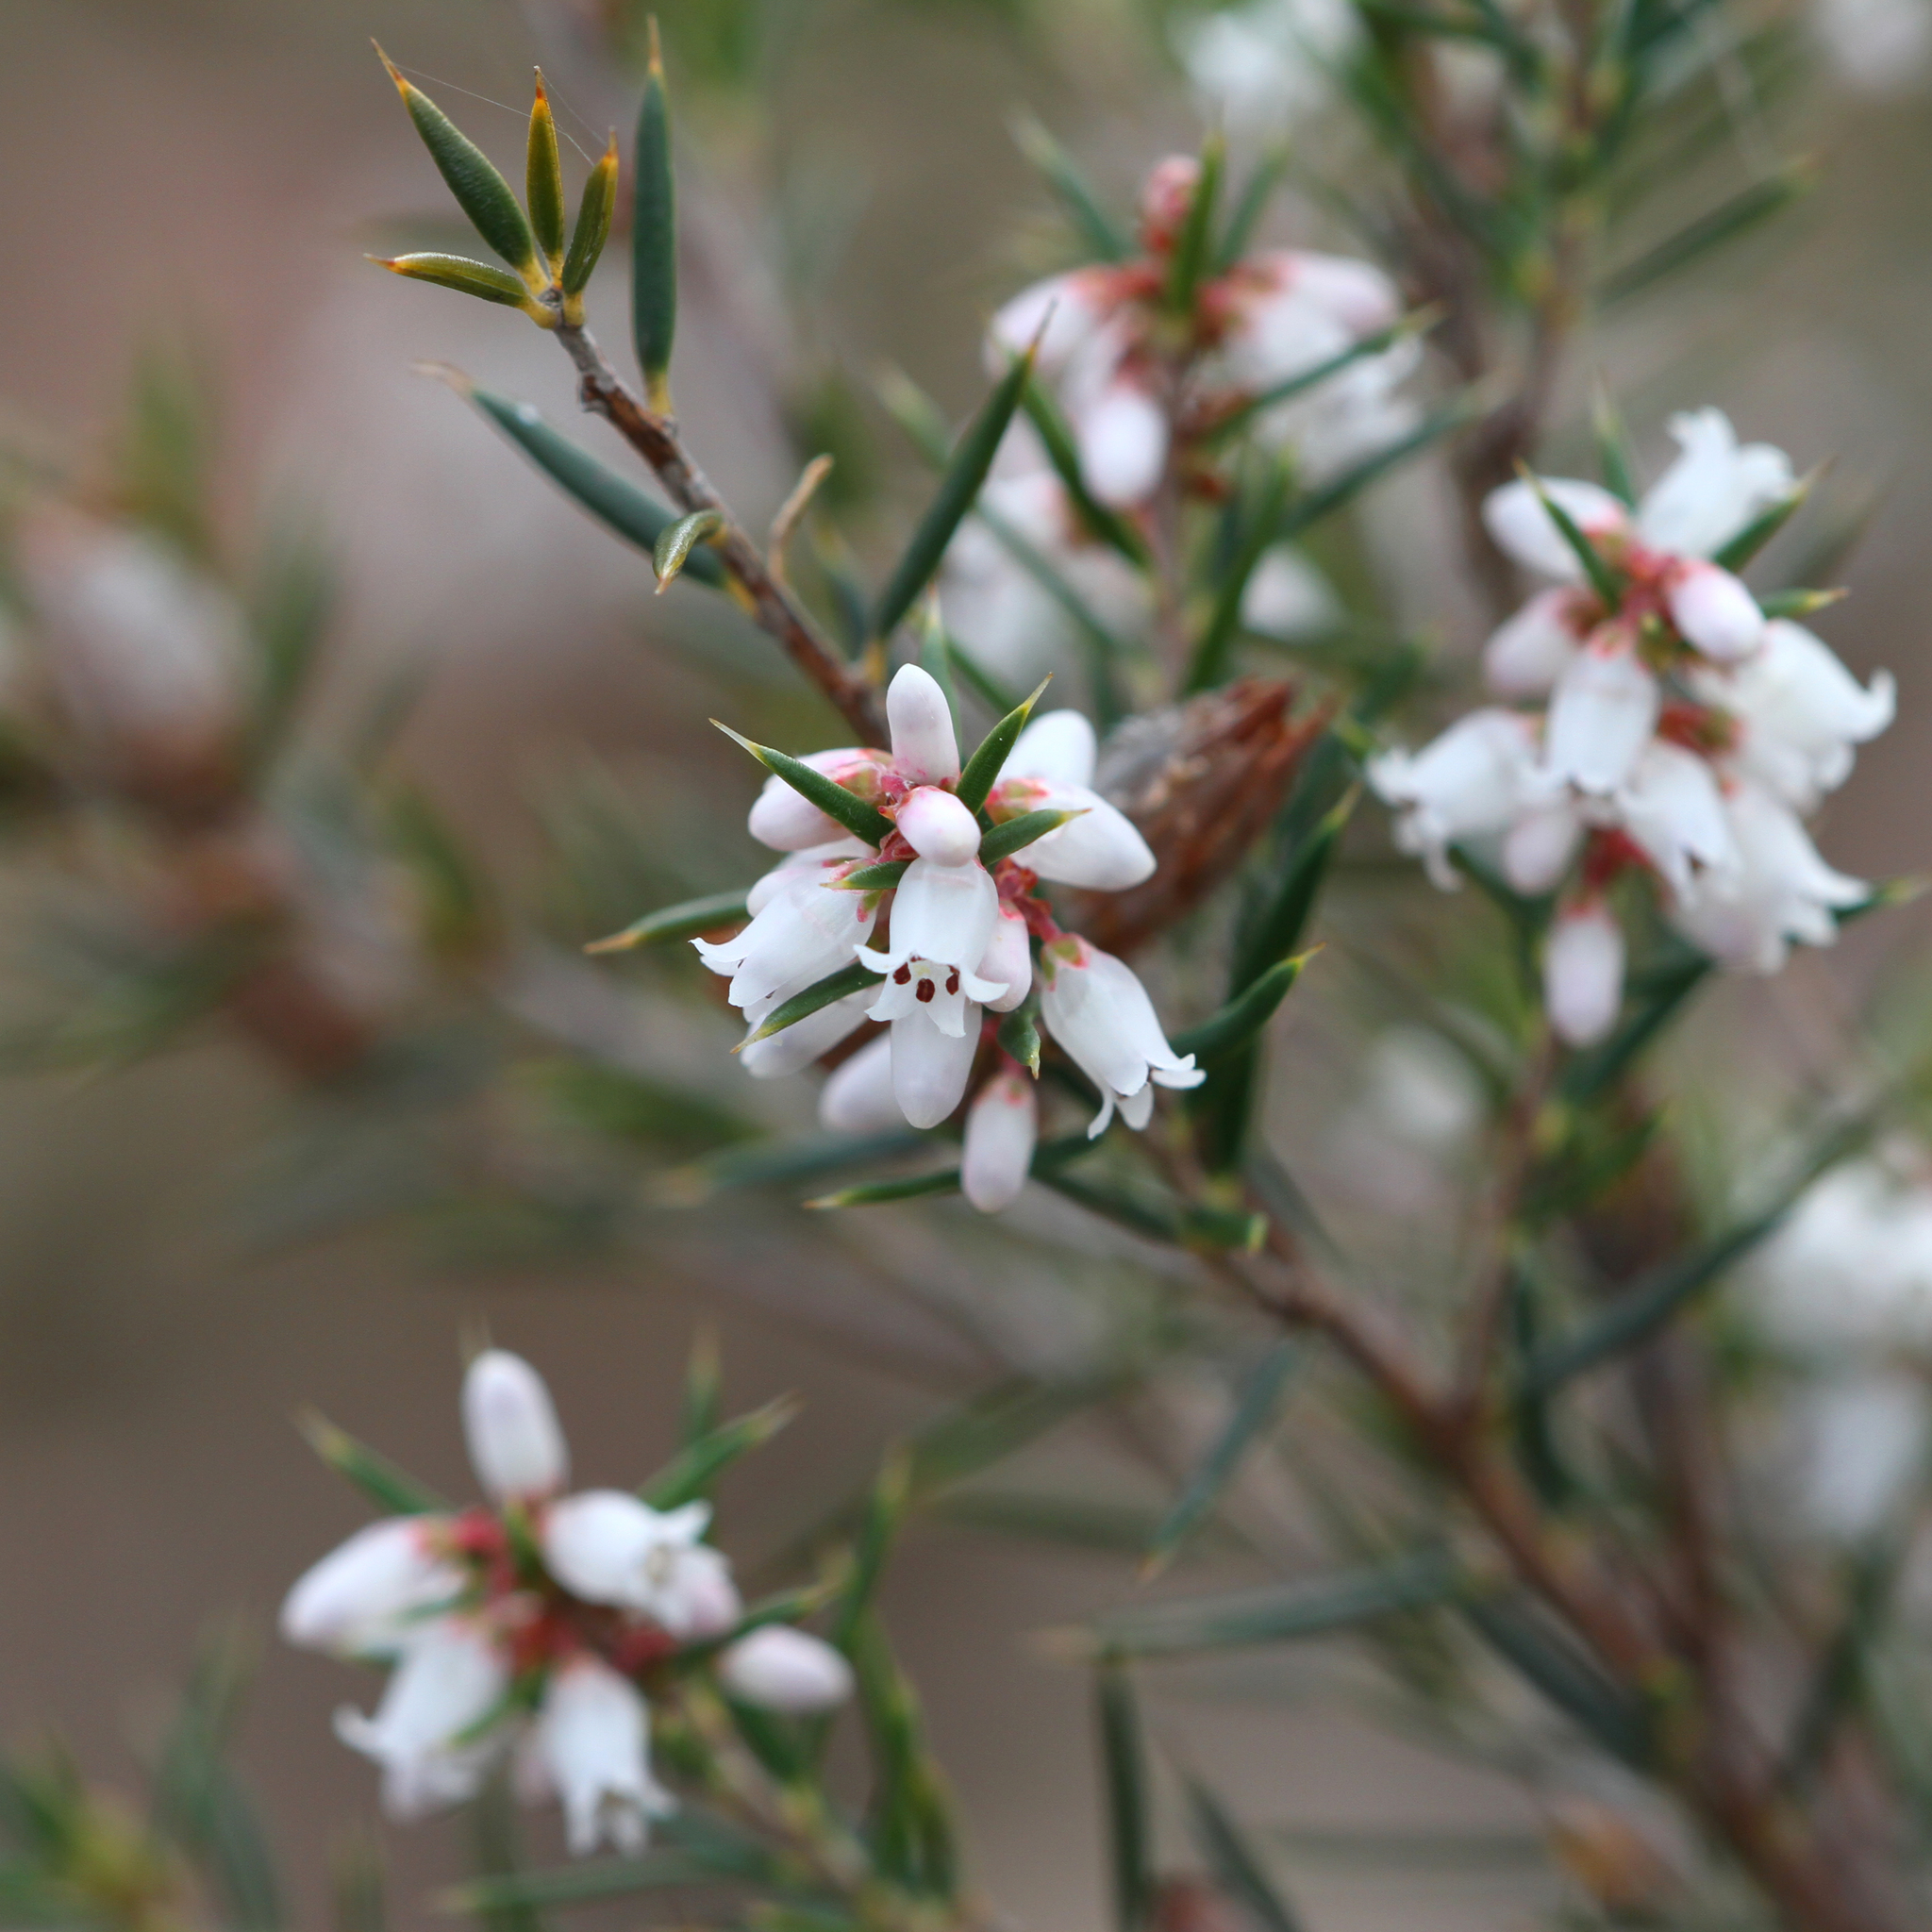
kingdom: Plantae
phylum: Tracheophyta
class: Magnoliopsida
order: Ericales
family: Ericaceae
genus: Lissanthe
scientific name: Lissanthe strigosa
